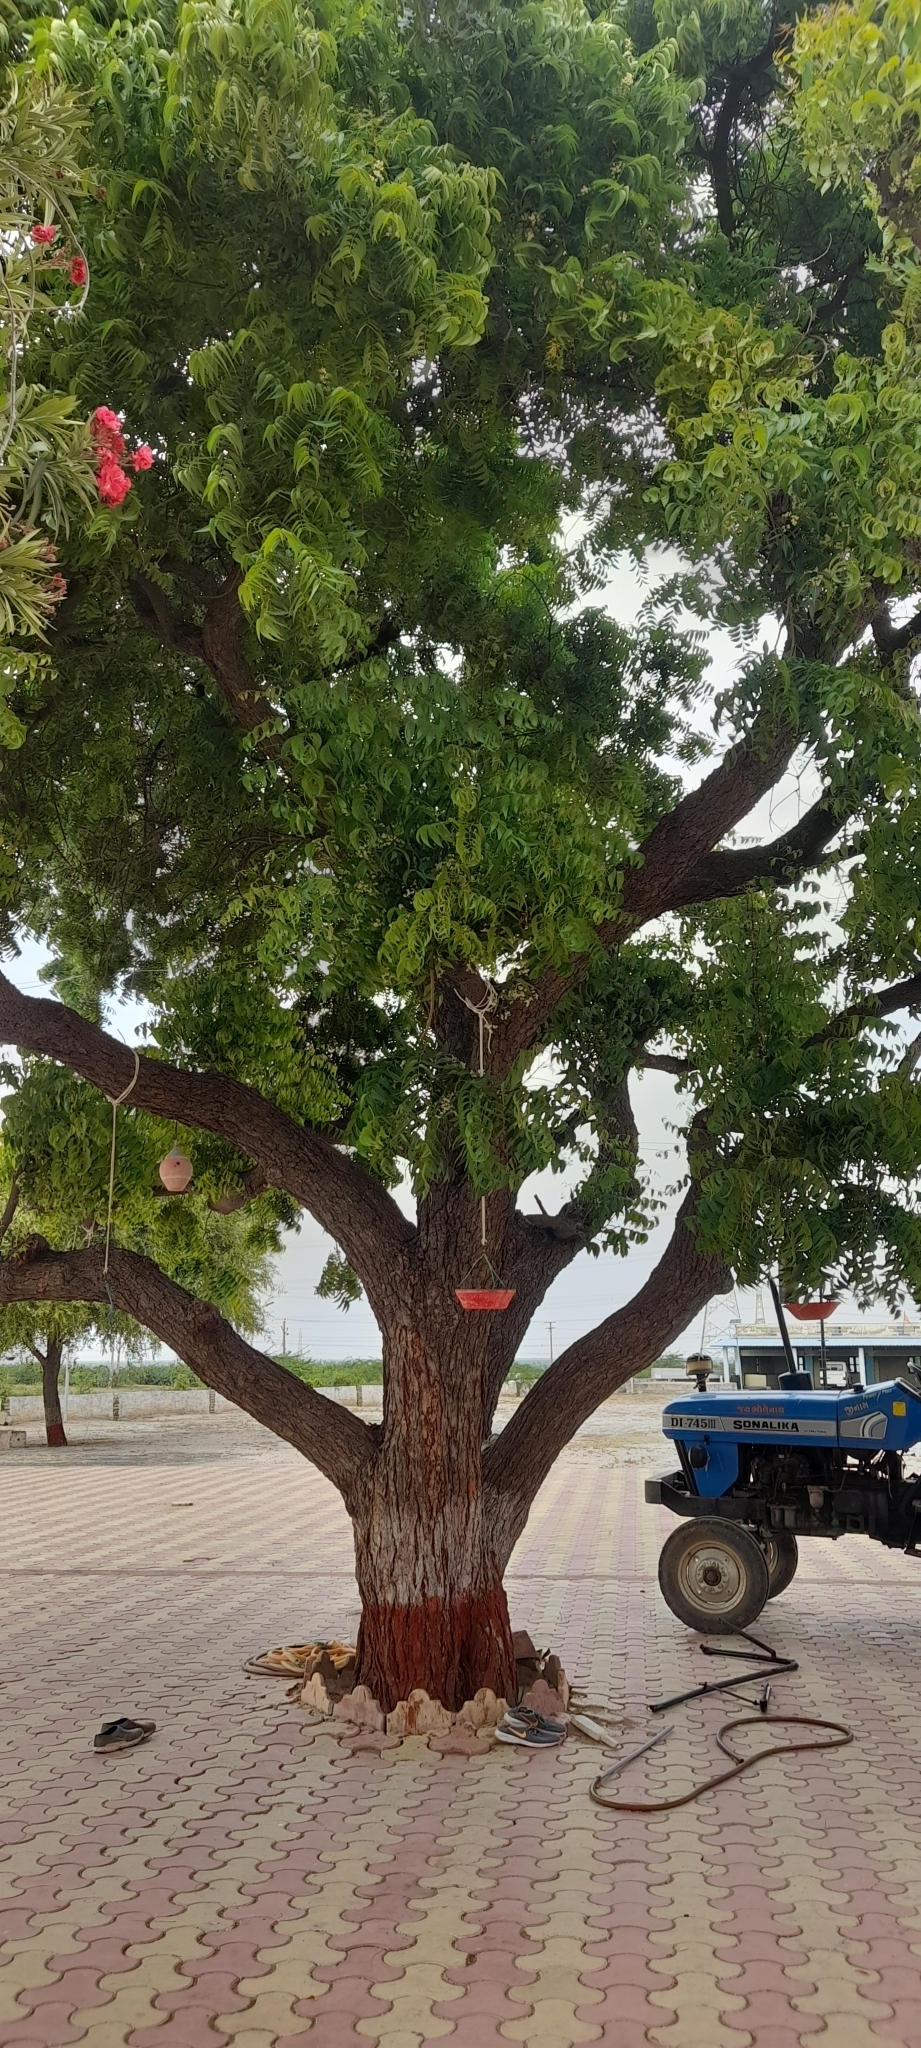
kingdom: Plantae
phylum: Tracheophyta
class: Magnoliopsida
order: Sapindales
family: Meliaceae
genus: Azadirachta
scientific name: Azadirachta indica
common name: Neem
